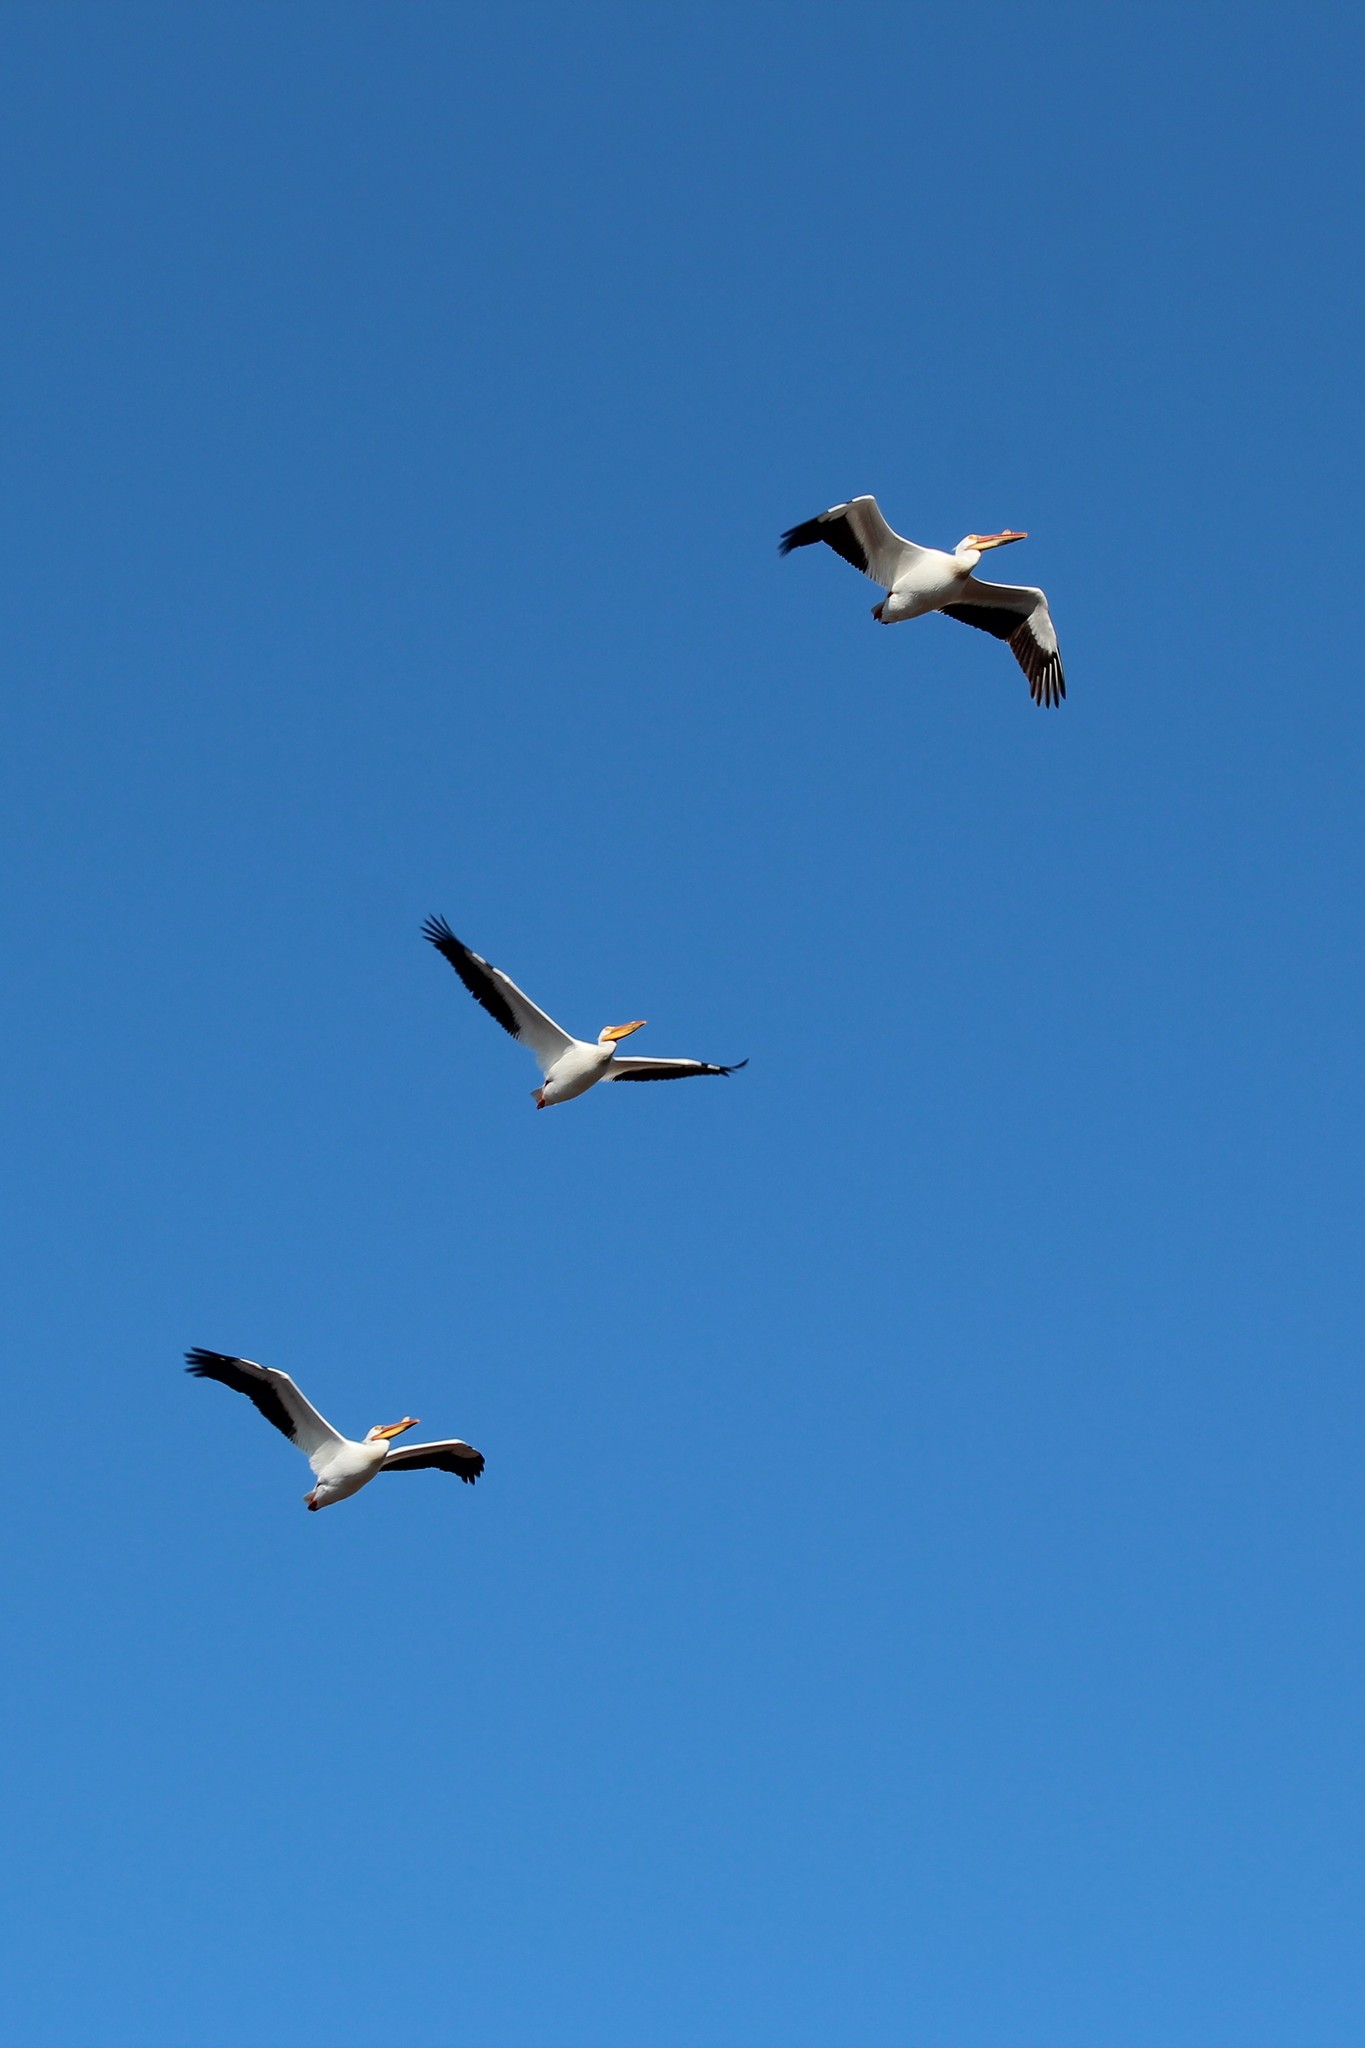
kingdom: Animalia
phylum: Chordata
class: Aves
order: Pelecaniformes
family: Pelecanidae
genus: Pelecanus
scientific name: Pelecanus erythrorhynchos
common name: American white pelican
